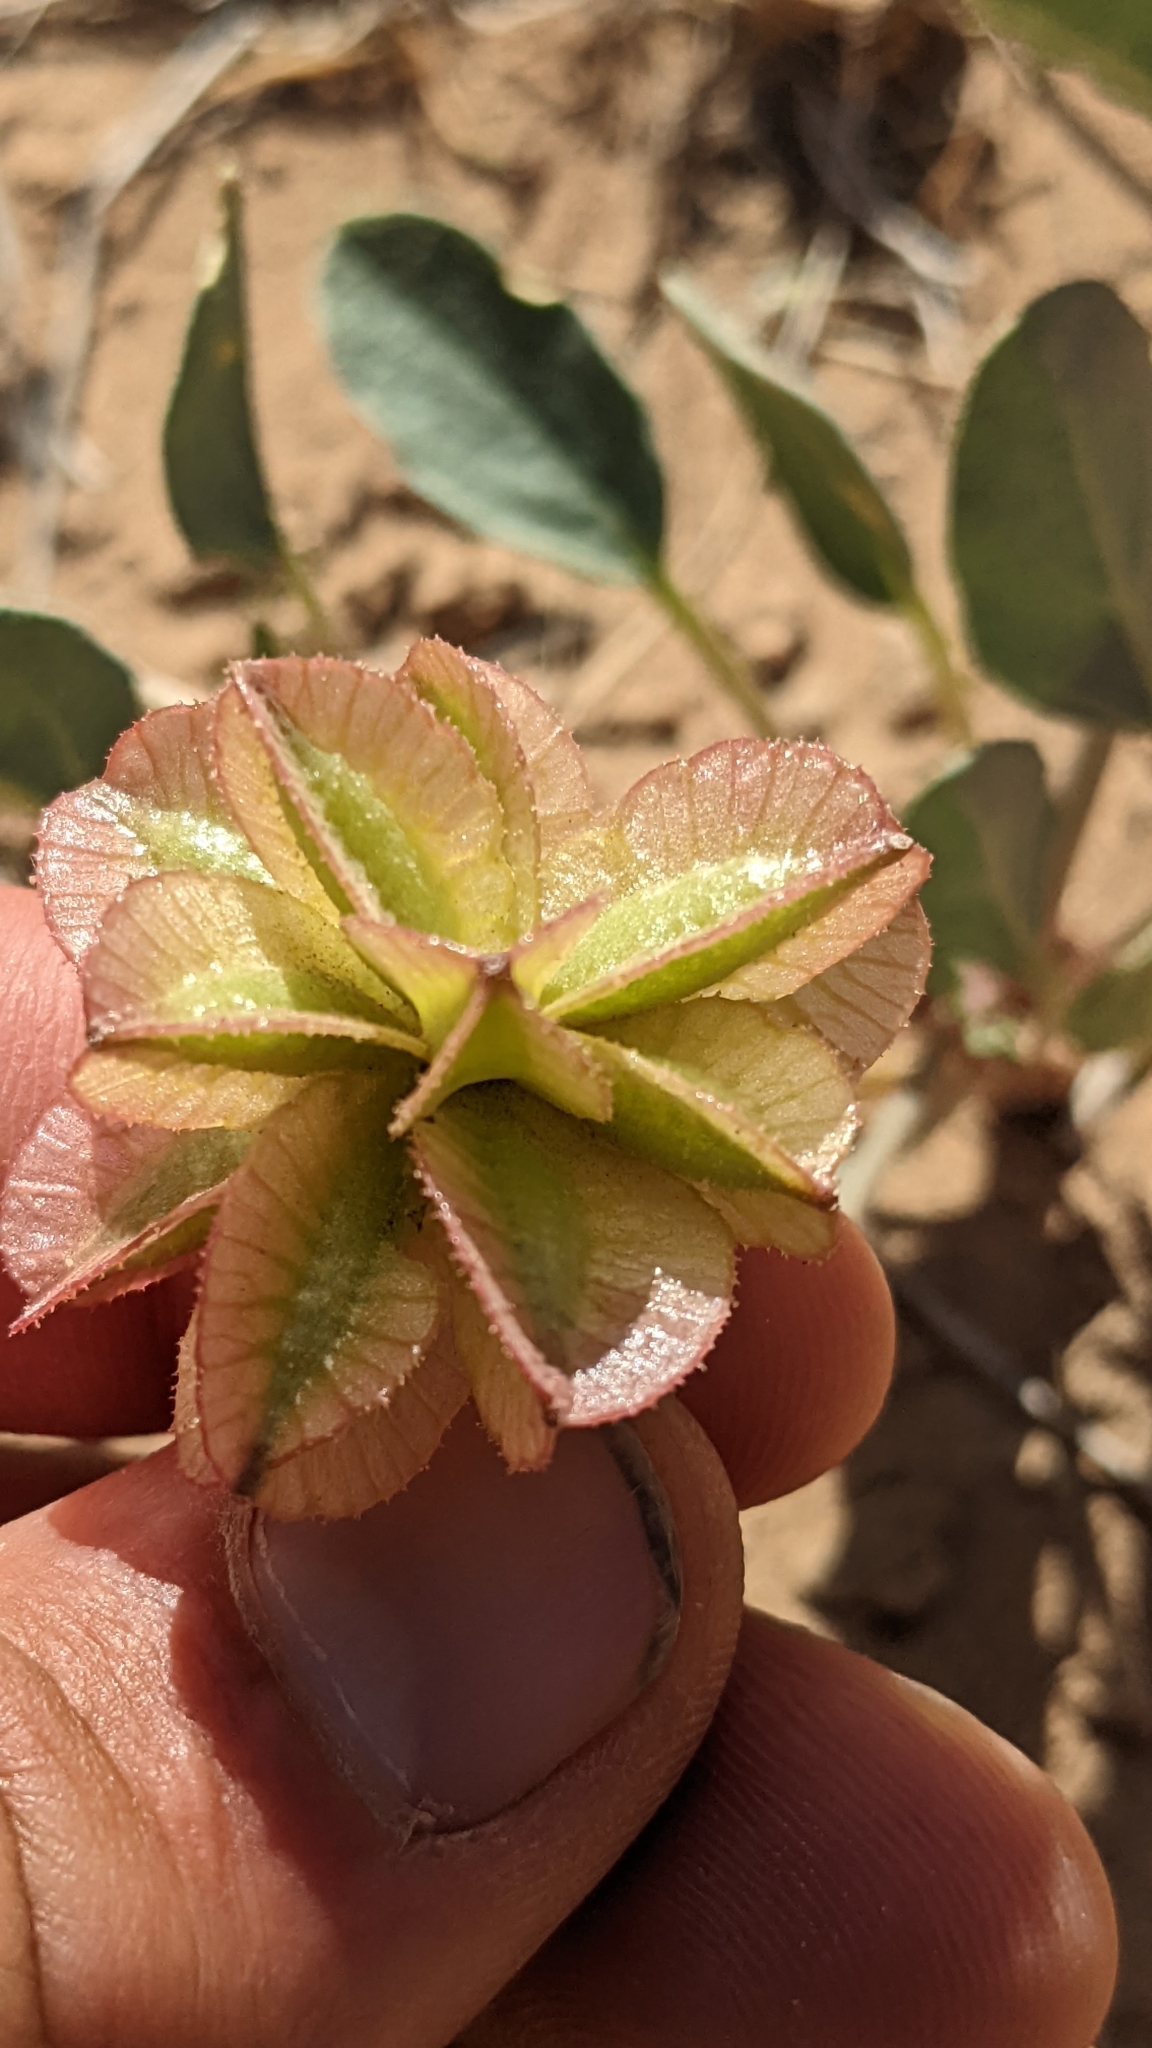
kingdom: Plantae
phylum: Tracheophyta
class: Magnoliopsida
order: Caryophyllales
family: Nyctaginaceae
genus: Tripterocalyx
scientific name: Tripterocalyx carneus
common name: Winged sandpuffs
